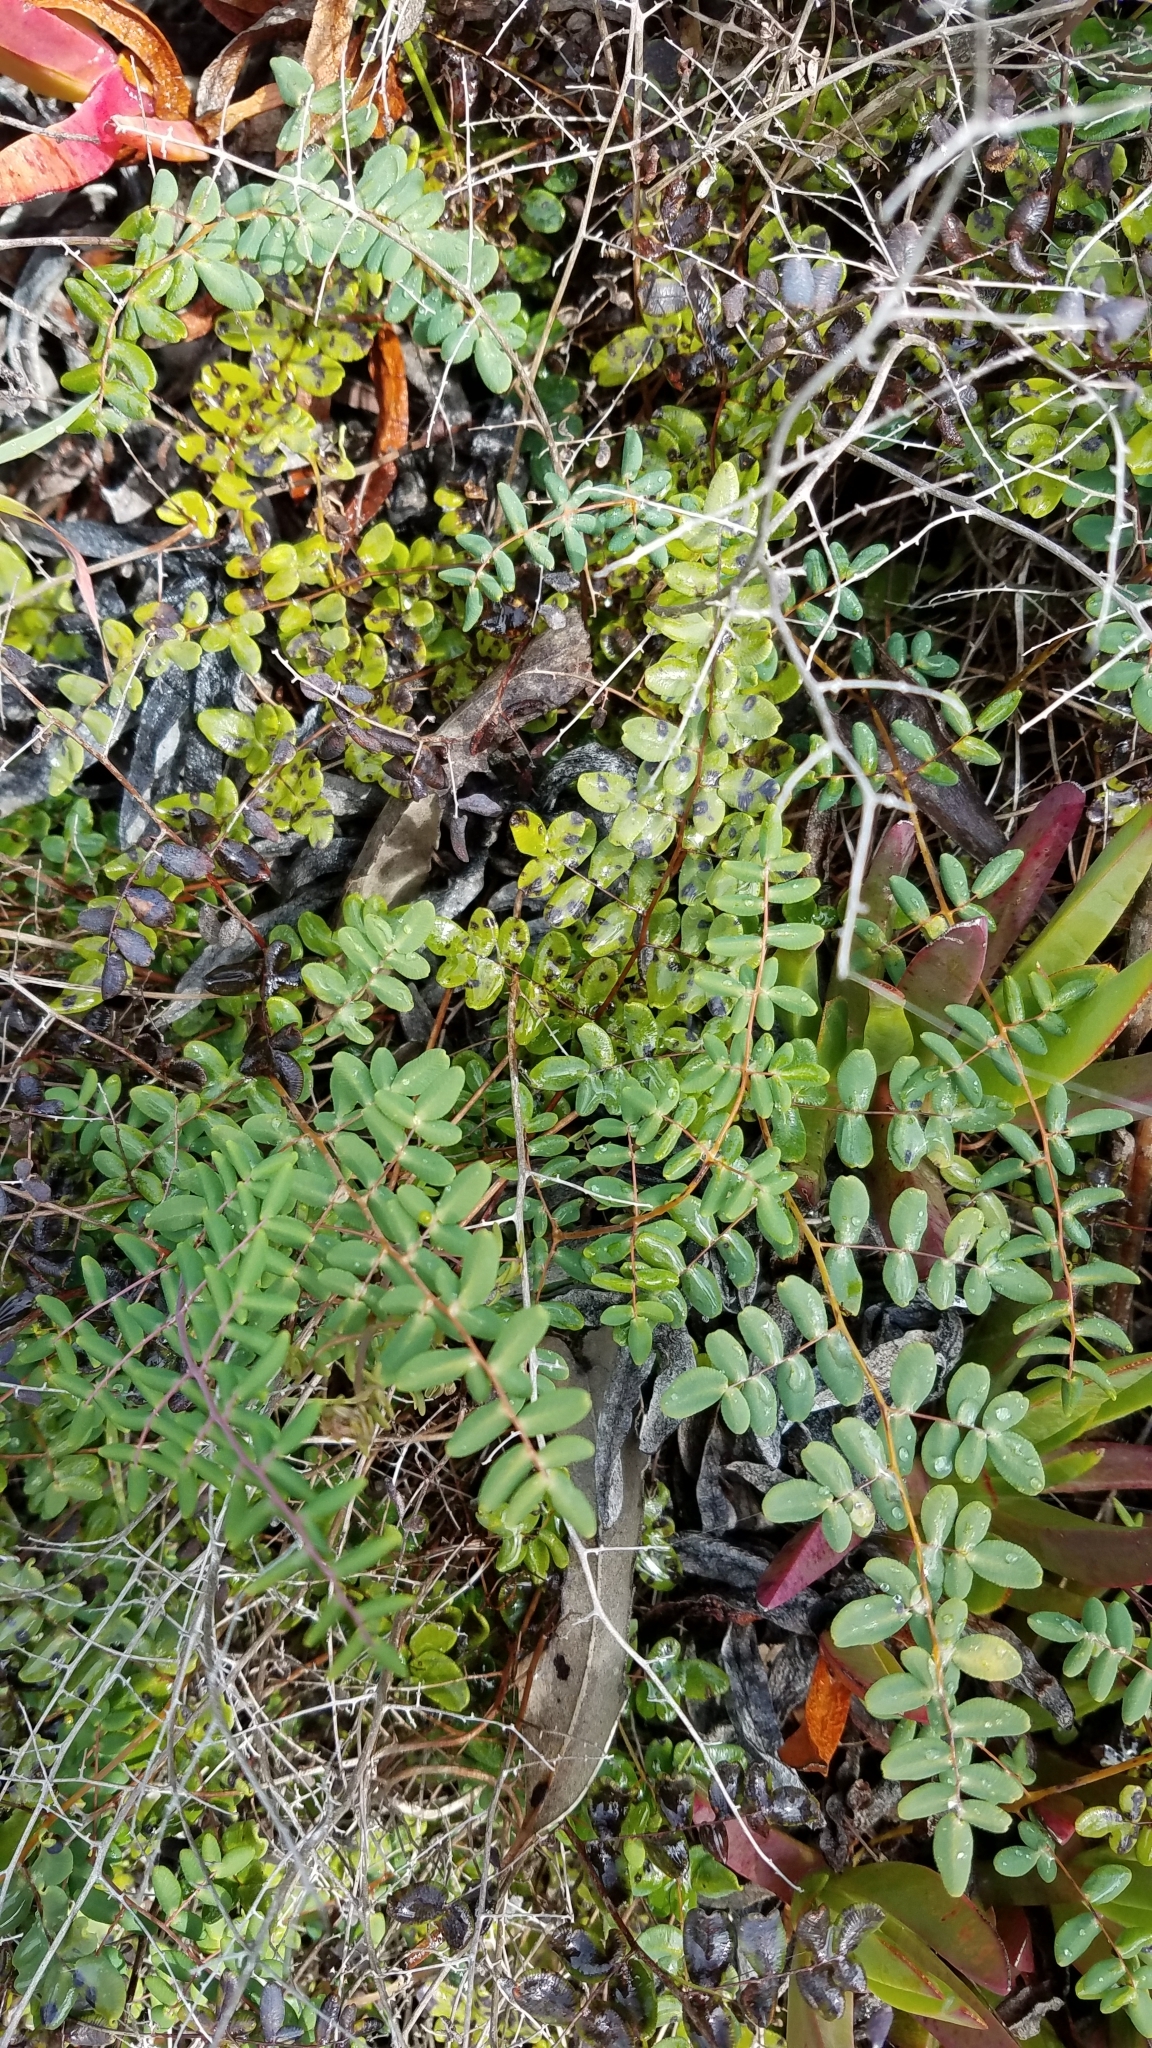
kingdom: Plantae
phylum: Tracheophyta
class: Polypodiopsida
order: Polypodiales
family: Pteridaceae
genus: Pellaea
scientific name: Pellaea andromedifolia
